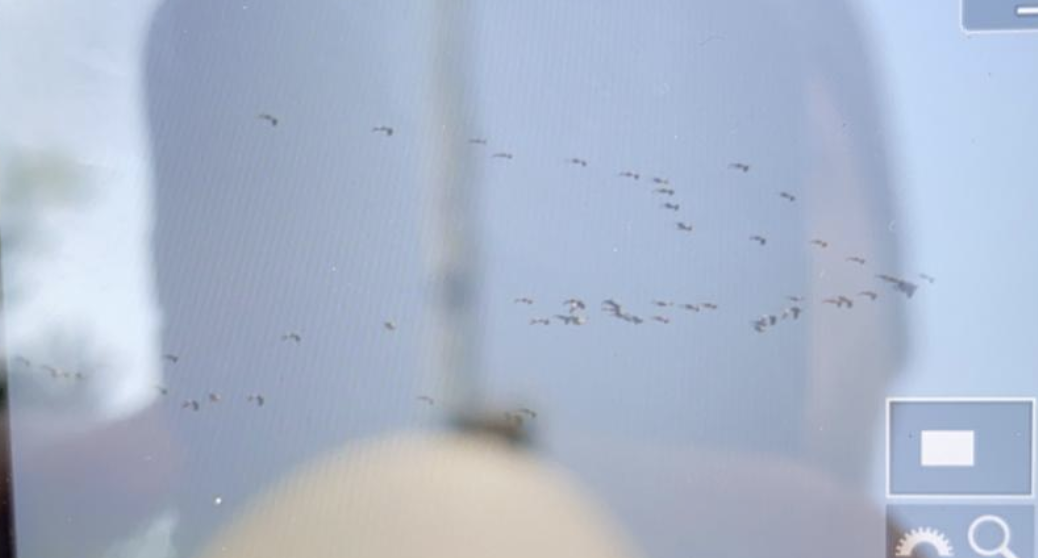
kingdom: Animalia
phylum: Chordata
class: Aves
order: Gruiformes
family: Gruidae
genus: Grus
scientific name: Grus grus
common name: Common crane
